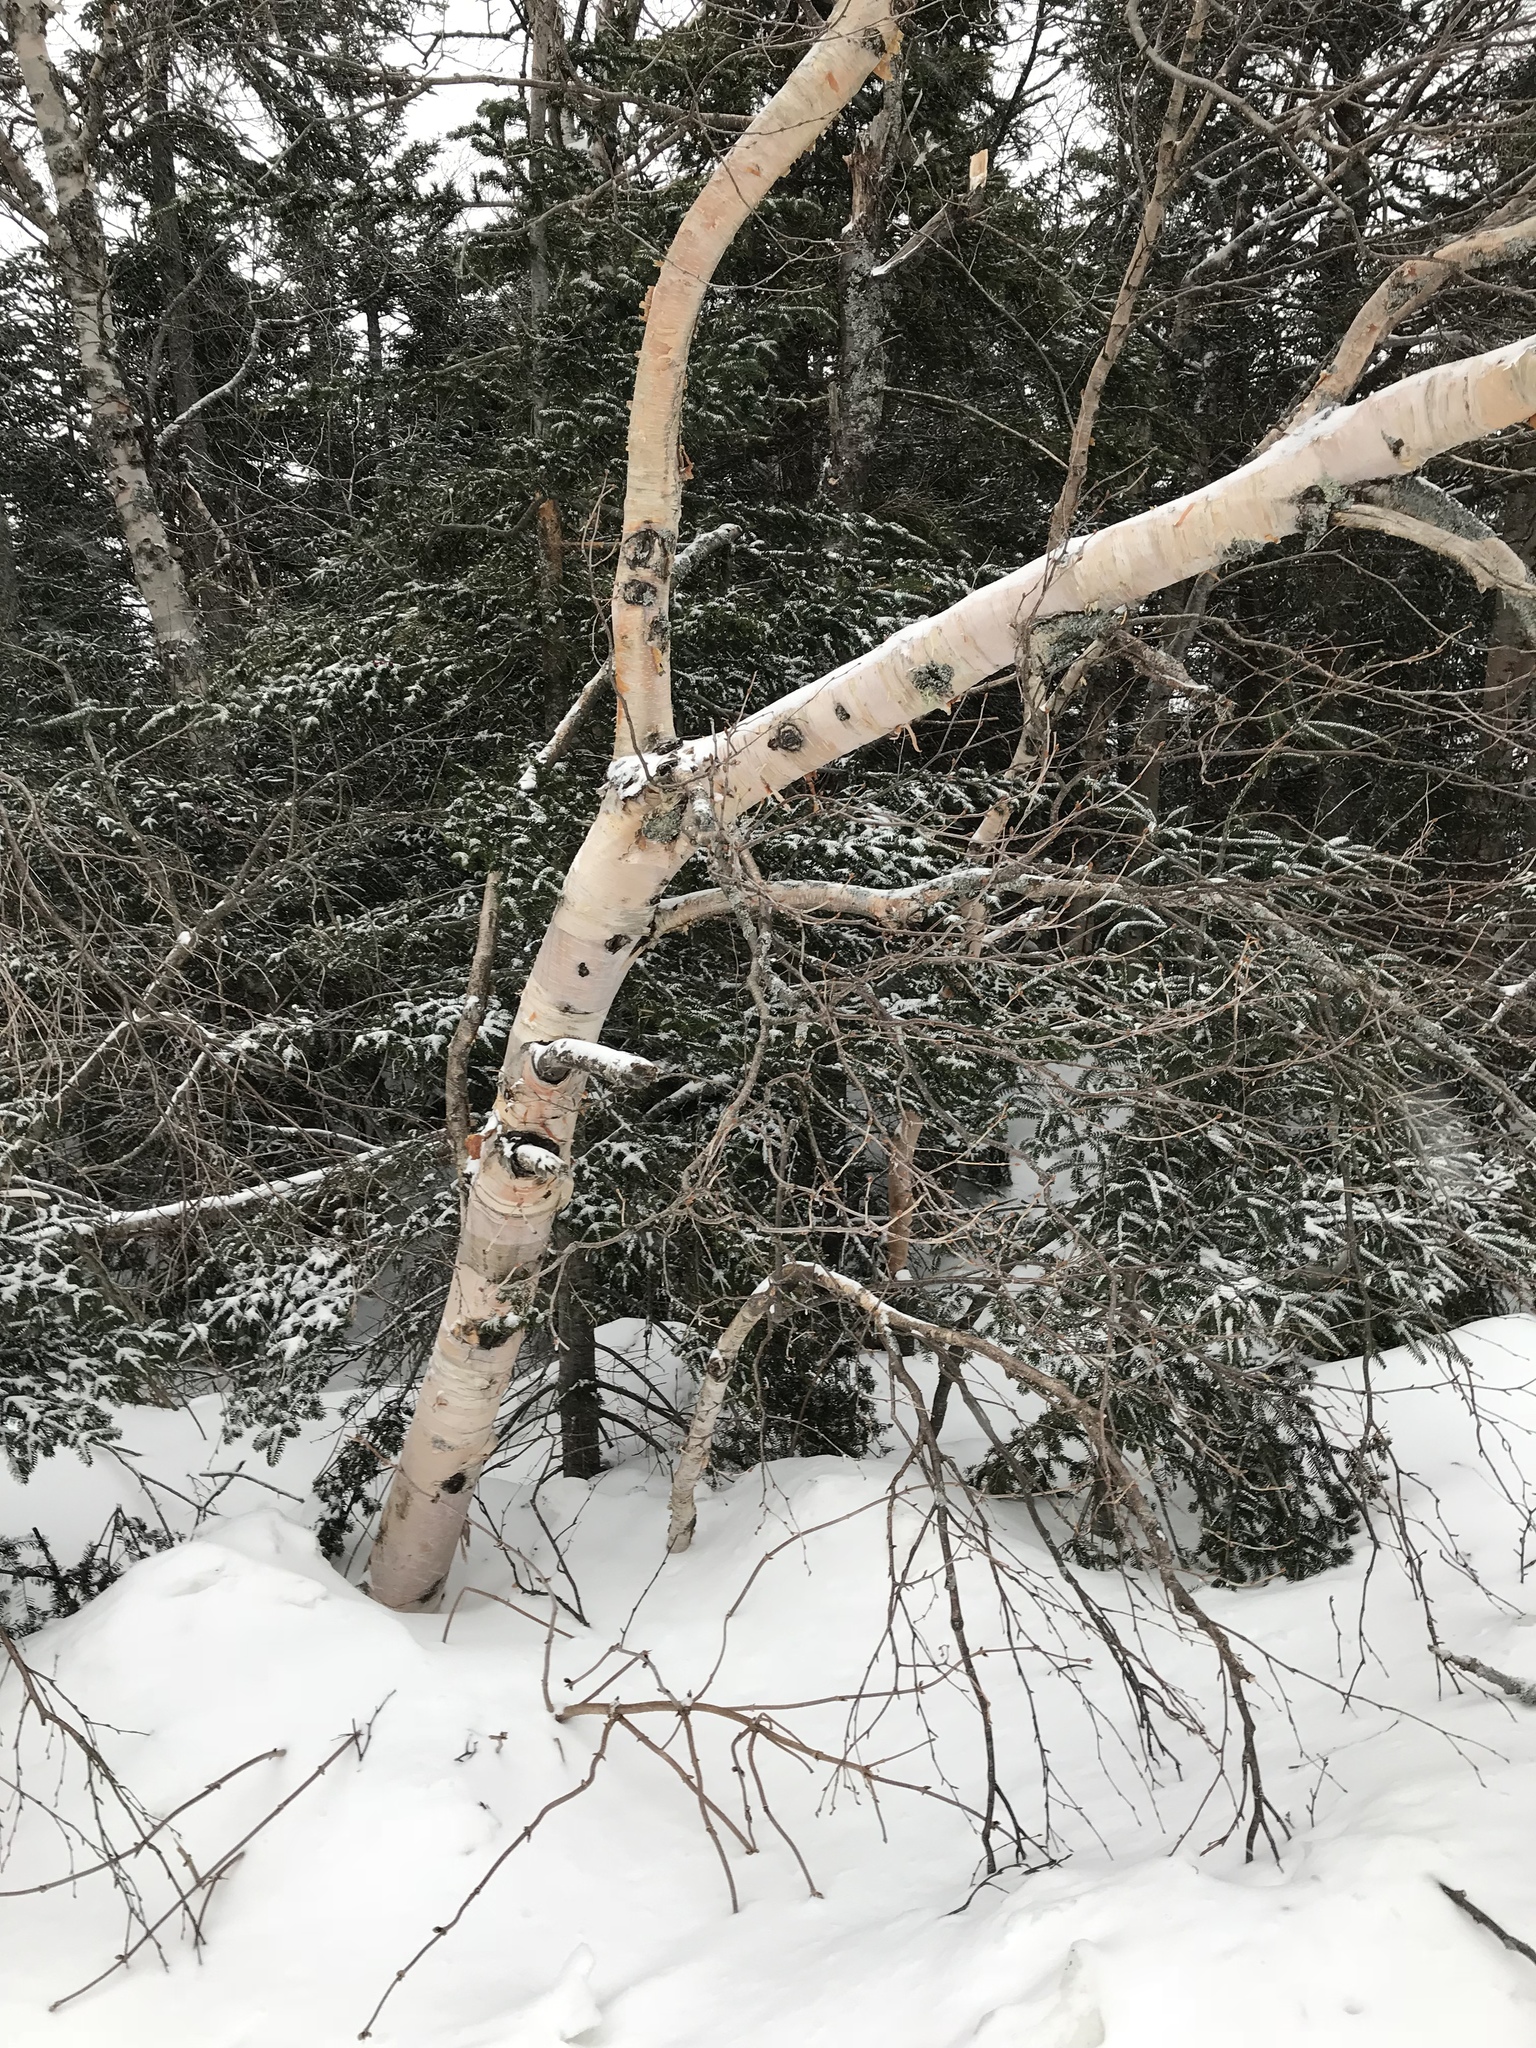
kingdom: Plantae
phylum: Tracheophyta
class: Magnoliopsida
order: Fagales
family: Betulaceae
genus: Betula
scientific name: Betula cordifolia
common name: Mountain white birch
